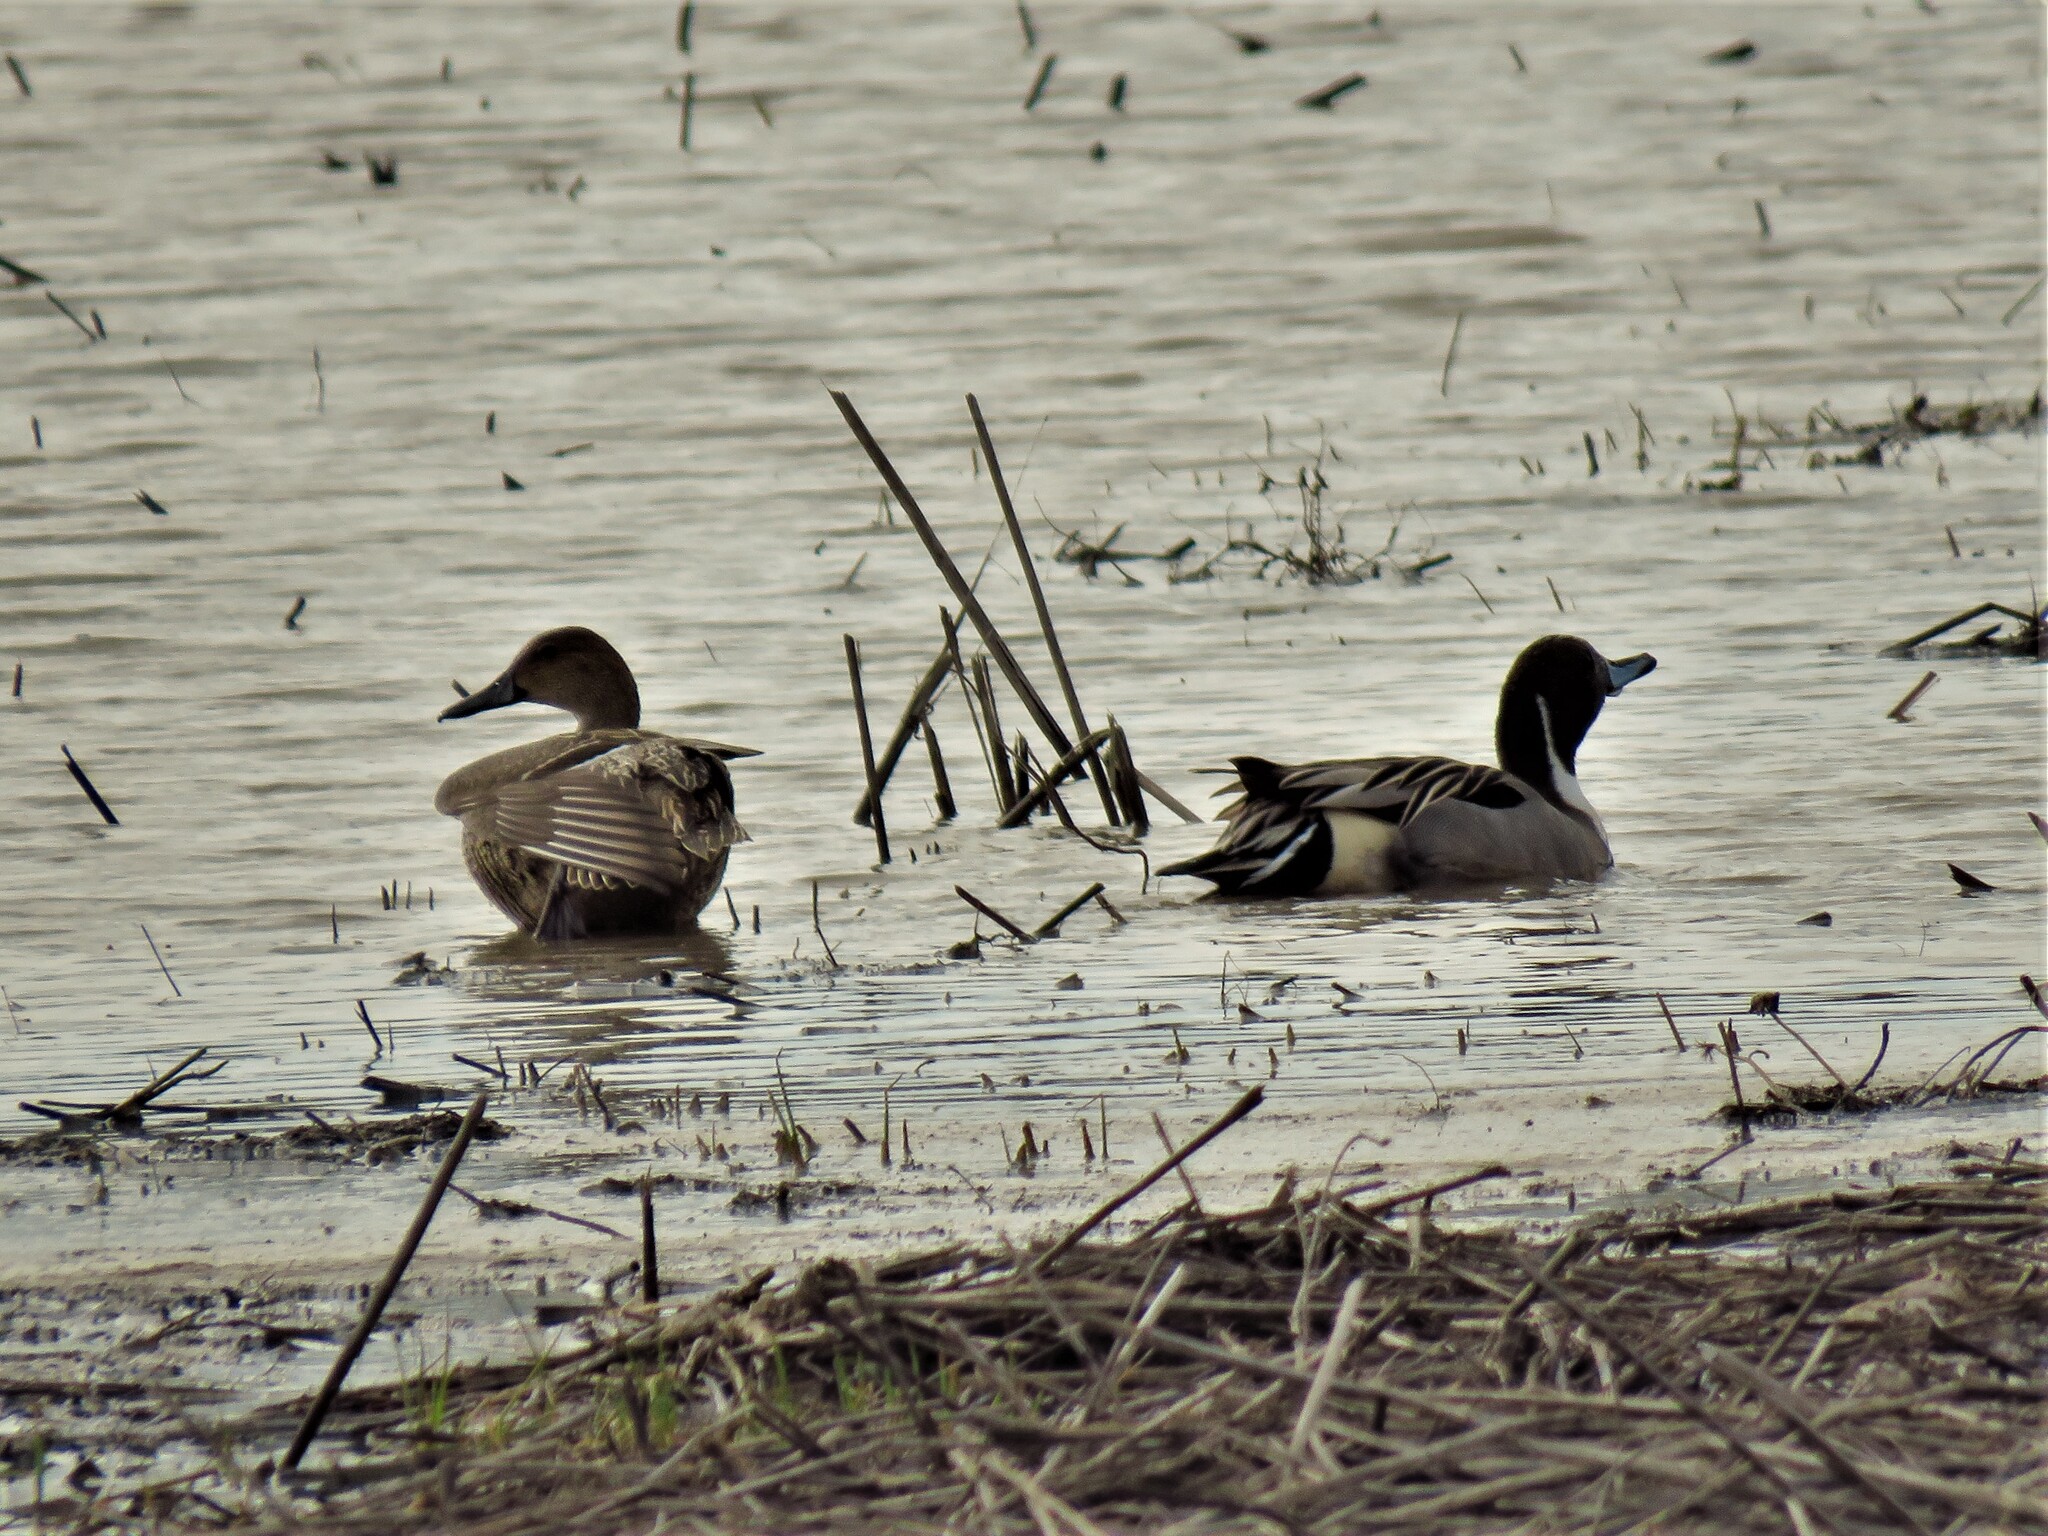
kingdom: Animalia
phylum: Chordata
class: Aves
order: Anseriformes
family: Anatidae
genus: Anas
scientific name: Anas acuta
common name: Northern pintail
